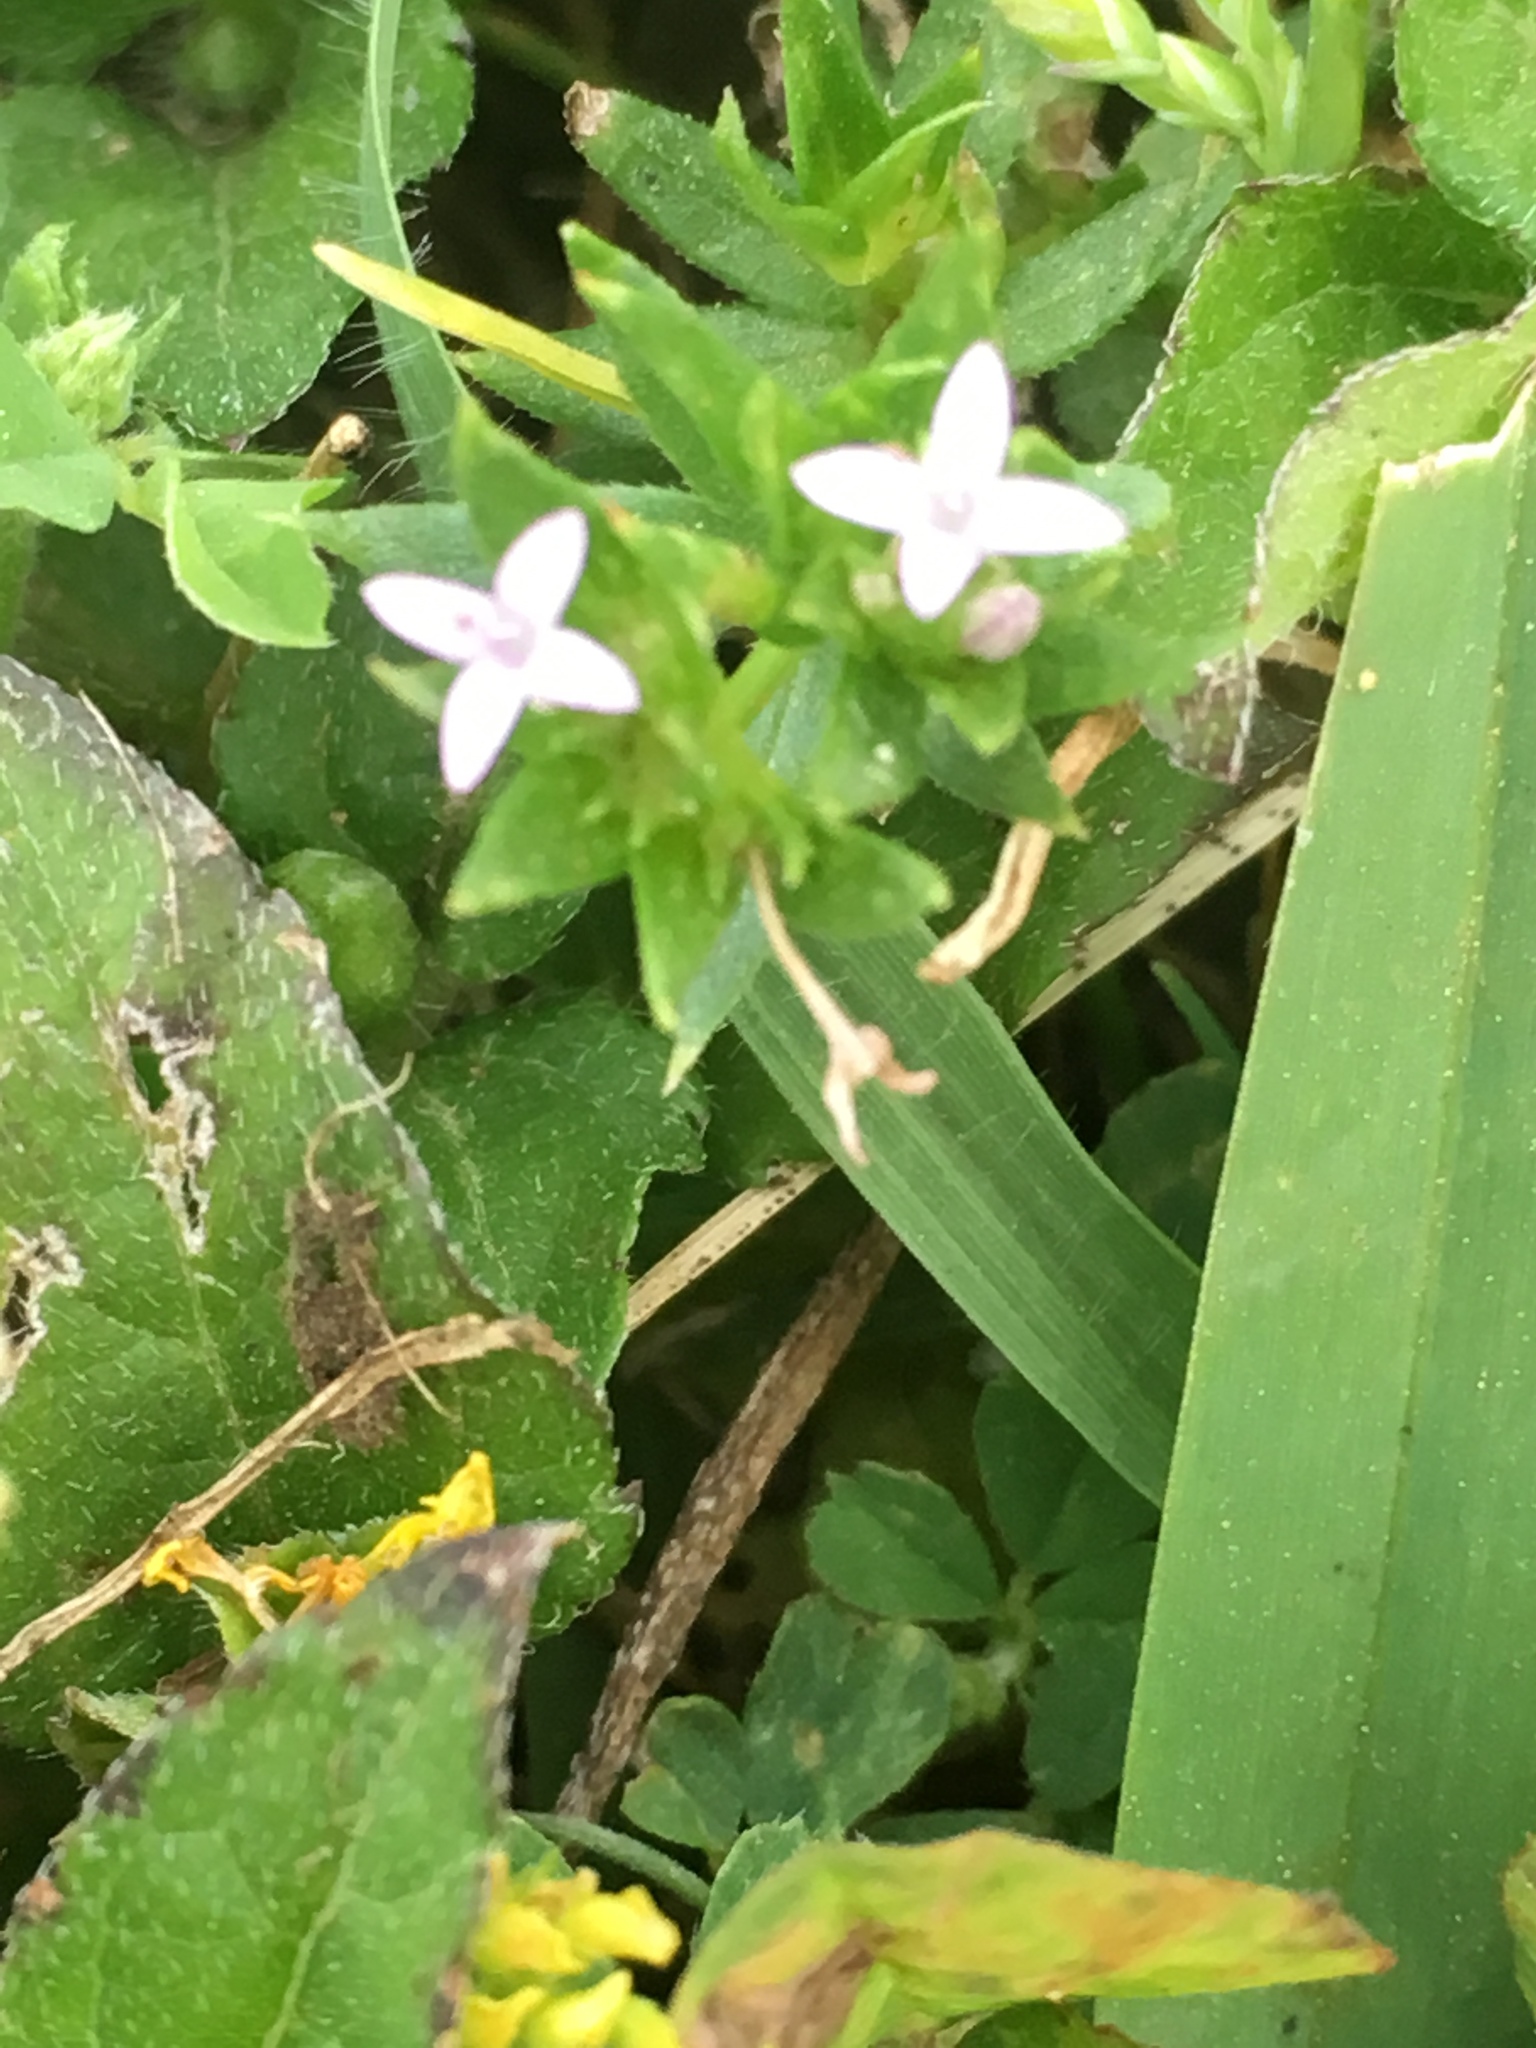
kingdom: Plantae
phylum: Tracheophyta
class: Magnoliopsida
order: Gentianales
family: Rubiaceae
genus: Sherardia
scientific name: Sherardia arvensis
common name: Field madder
